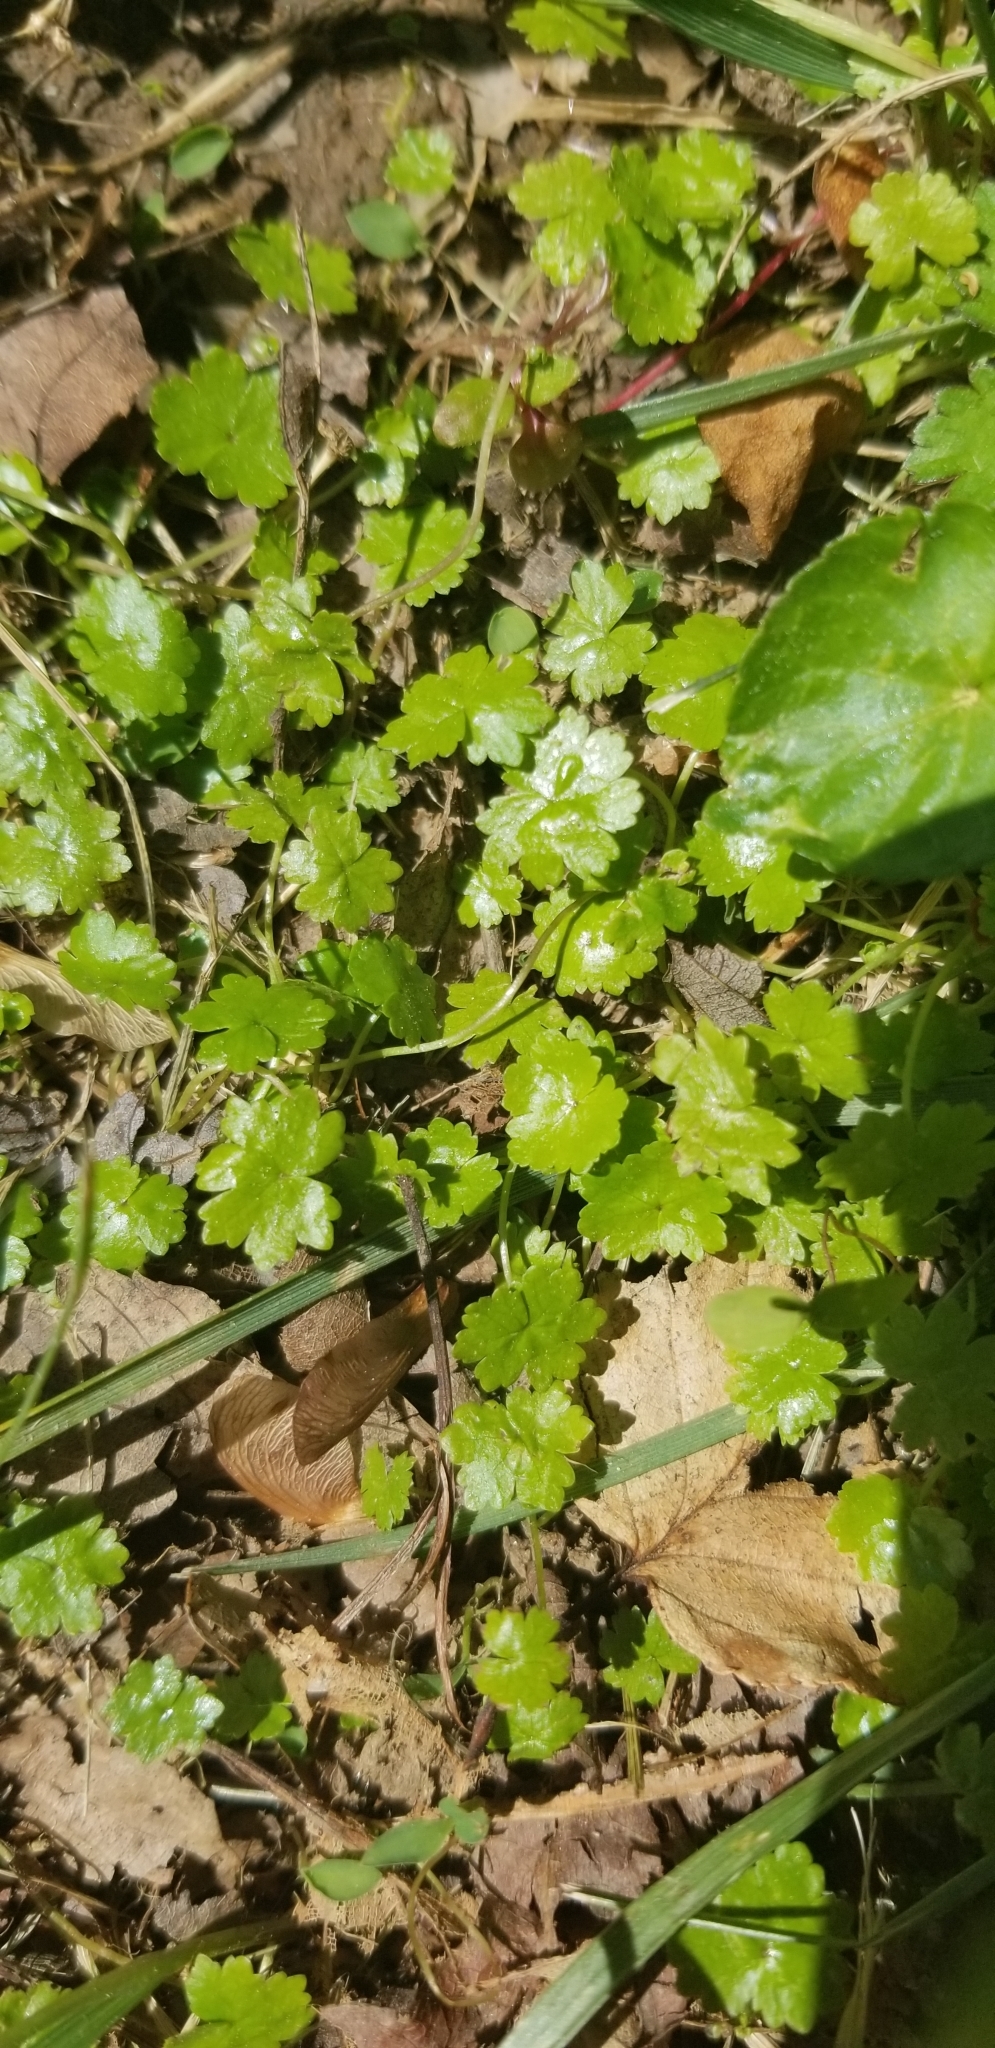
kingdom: Plantae
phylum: Tracheophyta
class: Magnoliopsida
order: Apiales
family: Araliaceae
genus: Hydrocotyle
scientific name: Hydrocotyle sibthorpioides
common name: Lawn marshpennywort
